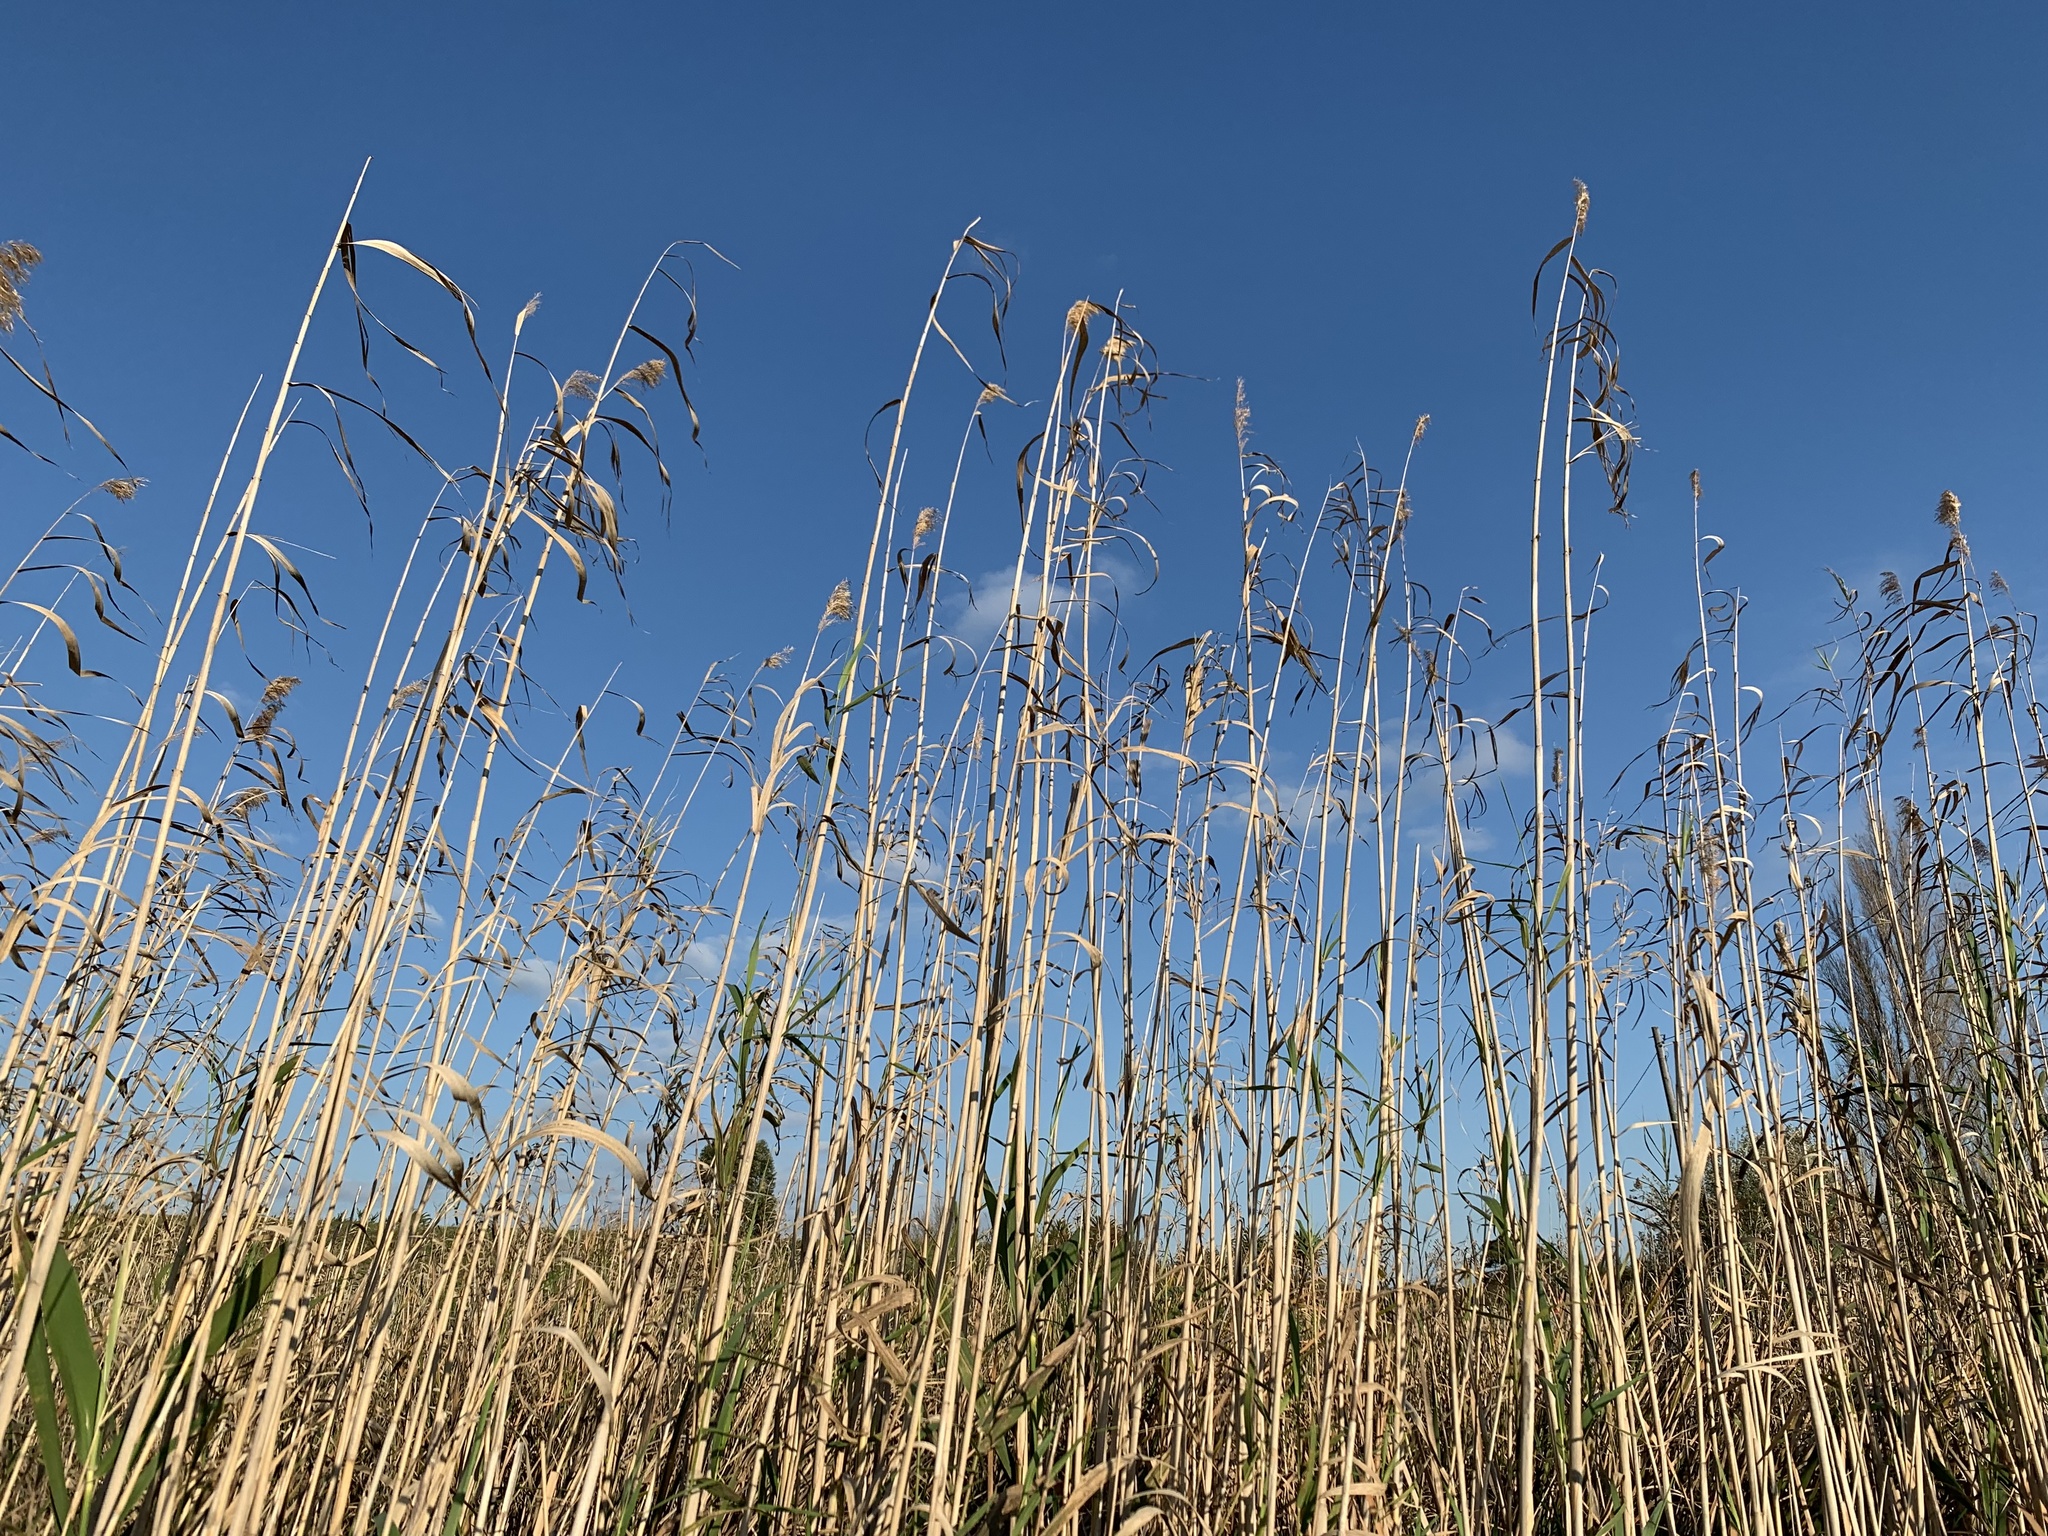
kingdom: Plantae
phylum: Tracheophyta
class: Liliopsida
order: Poales
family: Poaceae
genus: Phragmites
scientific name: Phragmites australis
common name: Common reed
